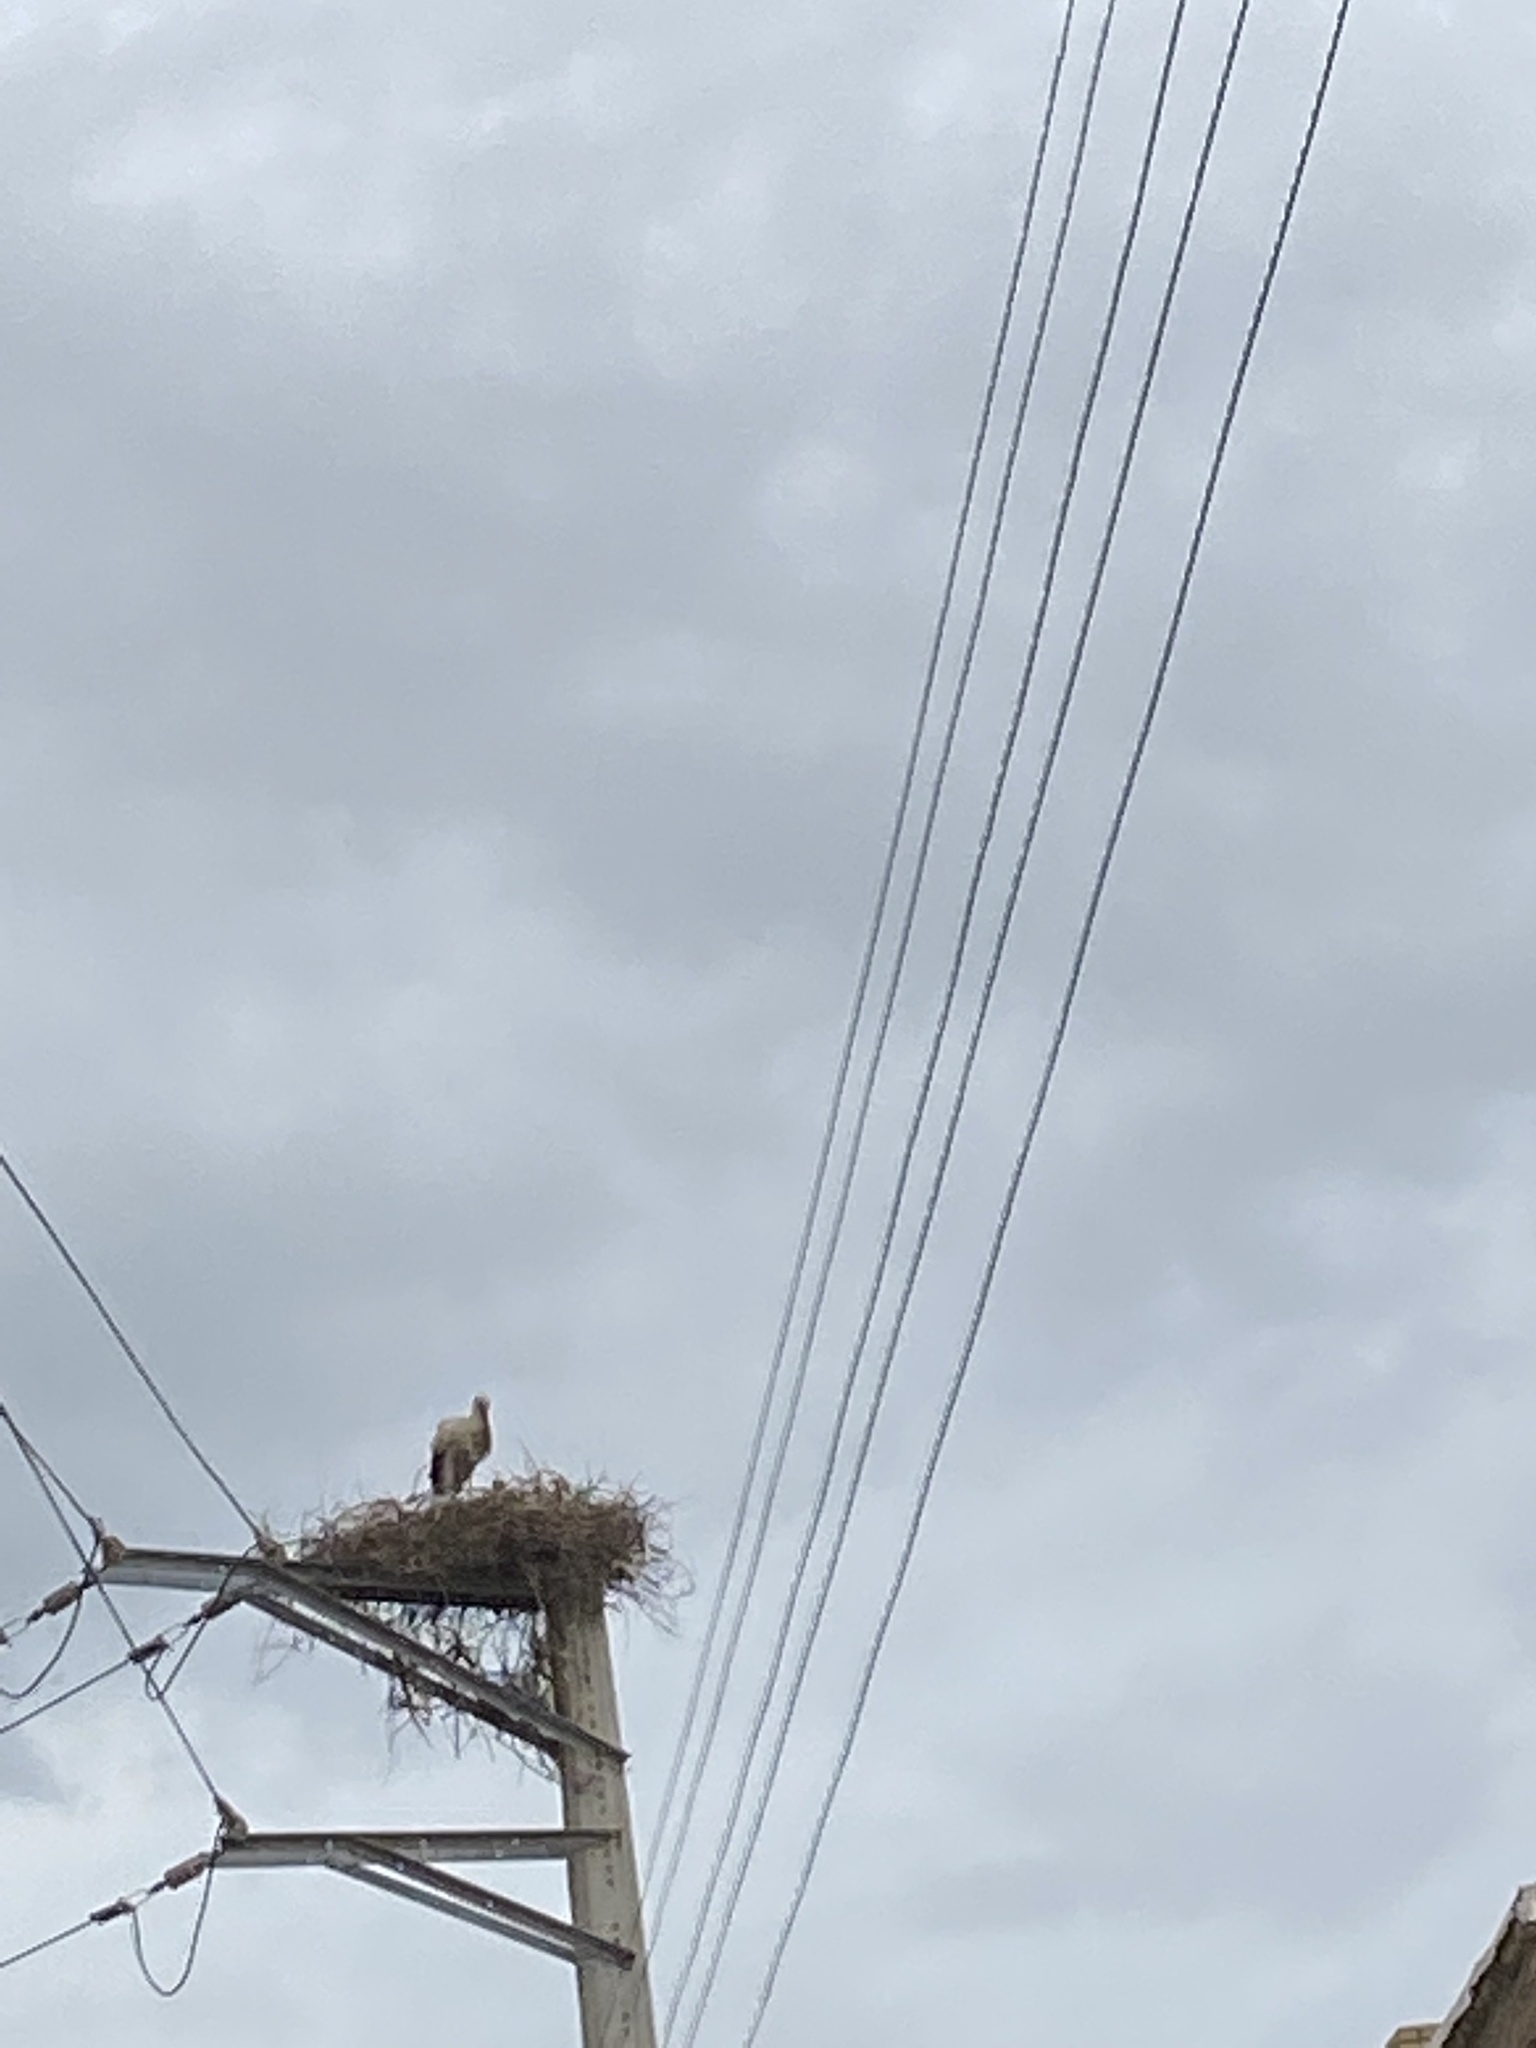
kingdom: Animalia
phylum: Chordata
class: Aves
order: Ciconiiformes
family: Ciconiidae
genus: Ciconia
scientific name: Ciconia ciconia
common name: White stork
